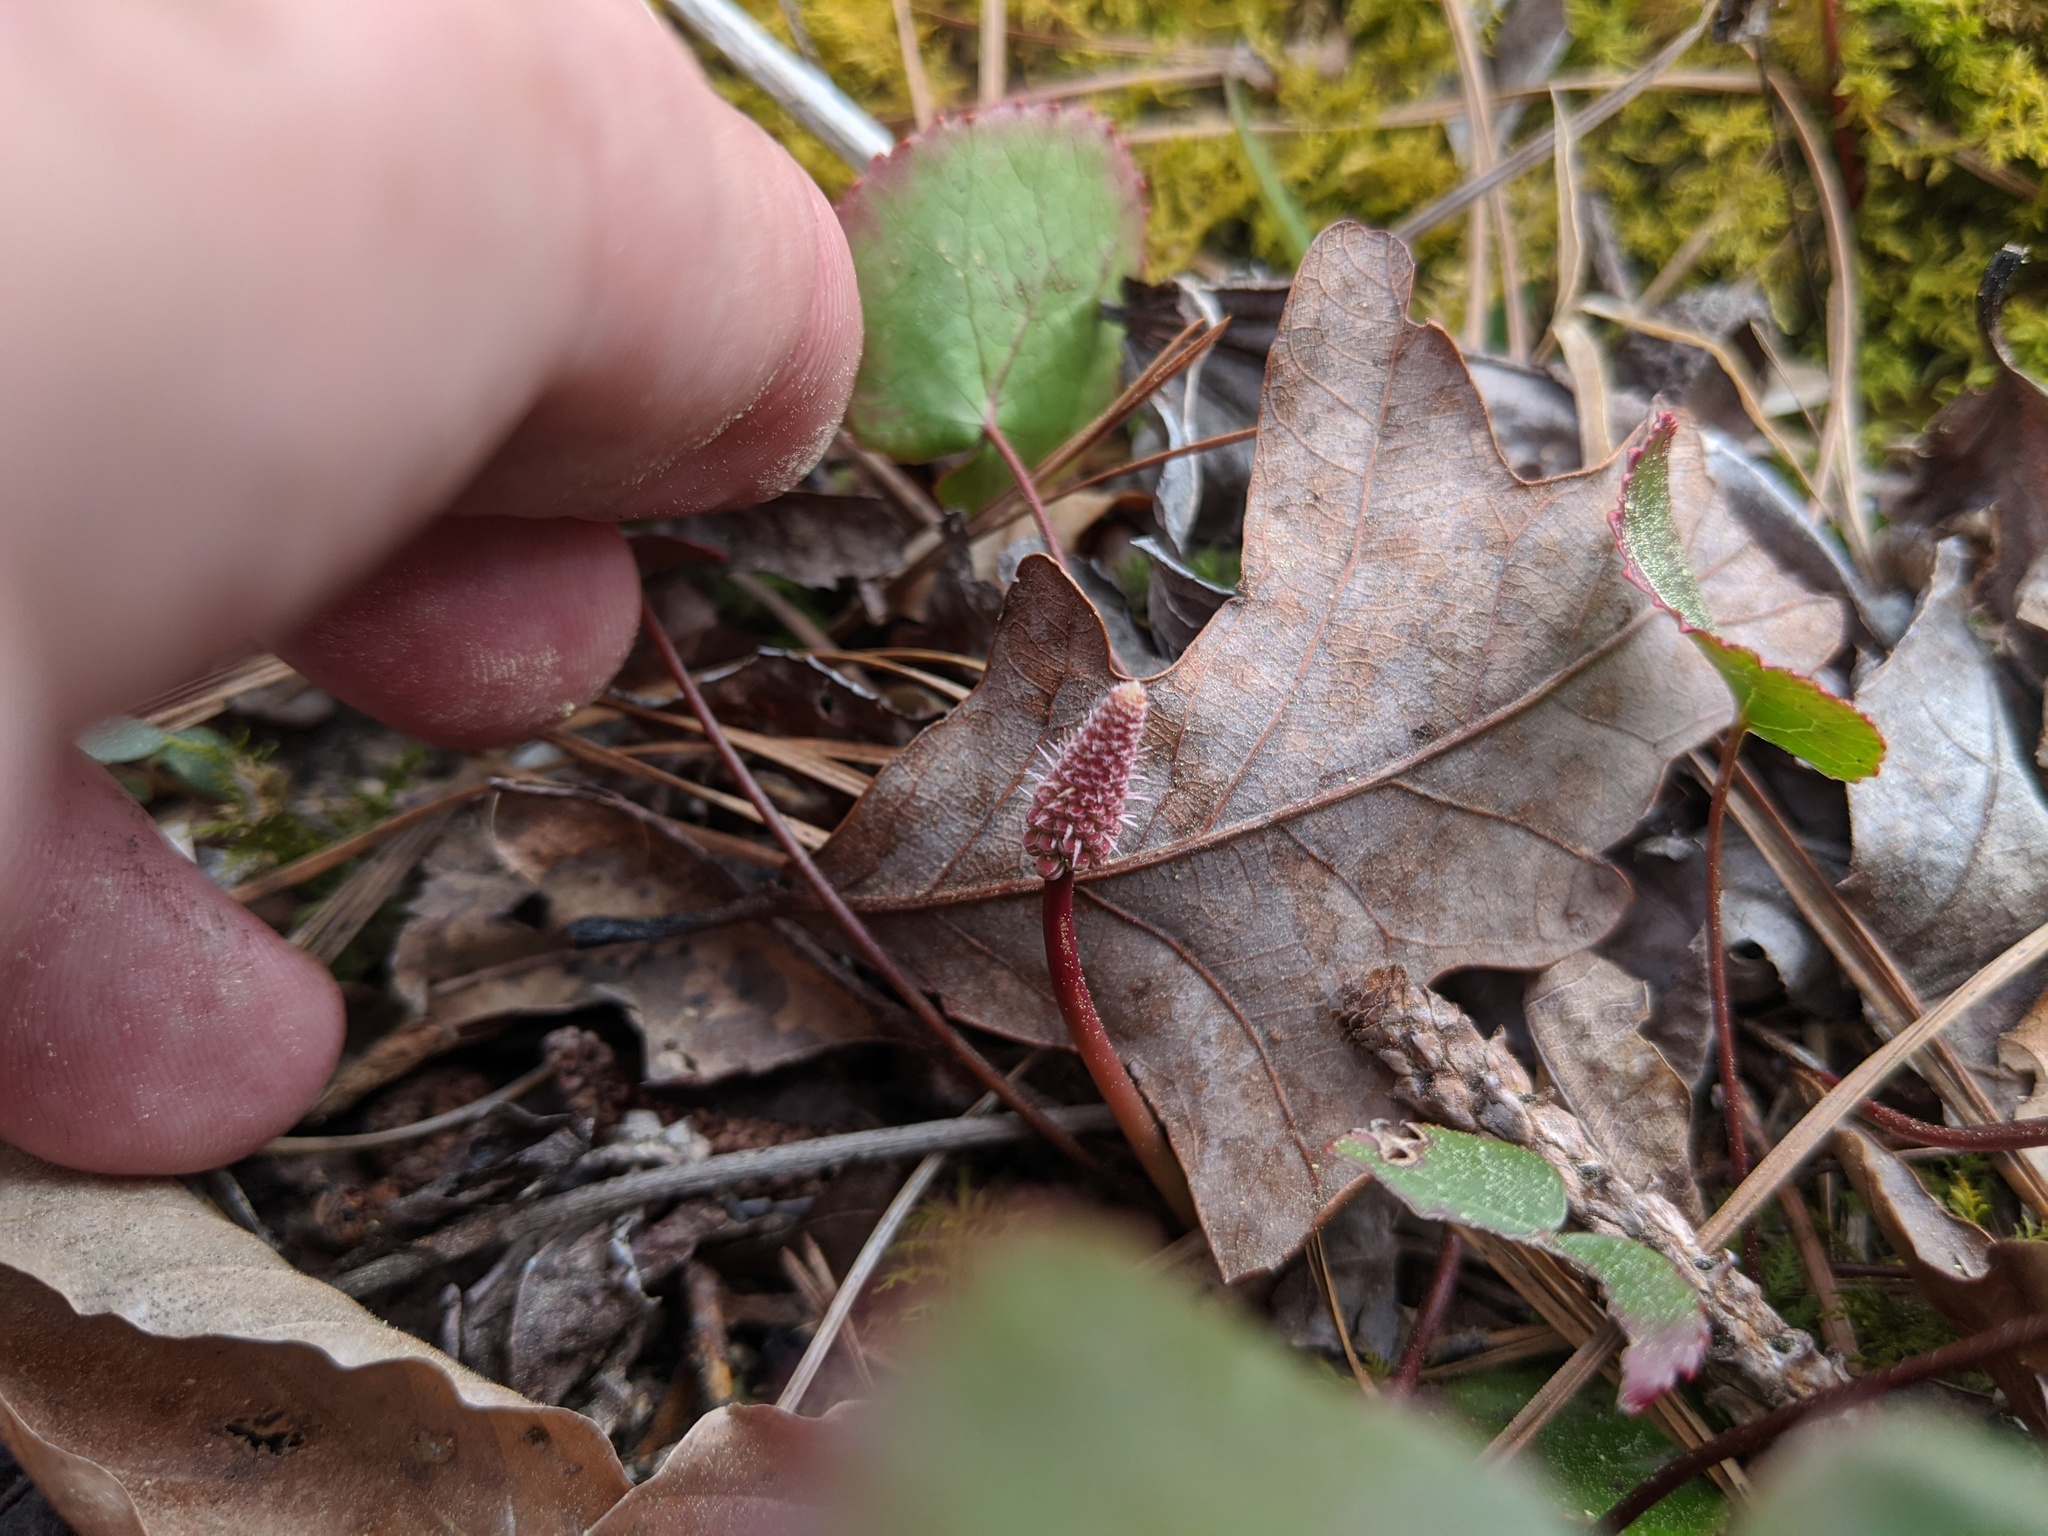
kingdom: Plantae
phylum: Tracheophyta
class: Magnoliopsida
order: Ericales
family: Diapensiaceae
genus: Galax
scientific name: Galax urceolata
